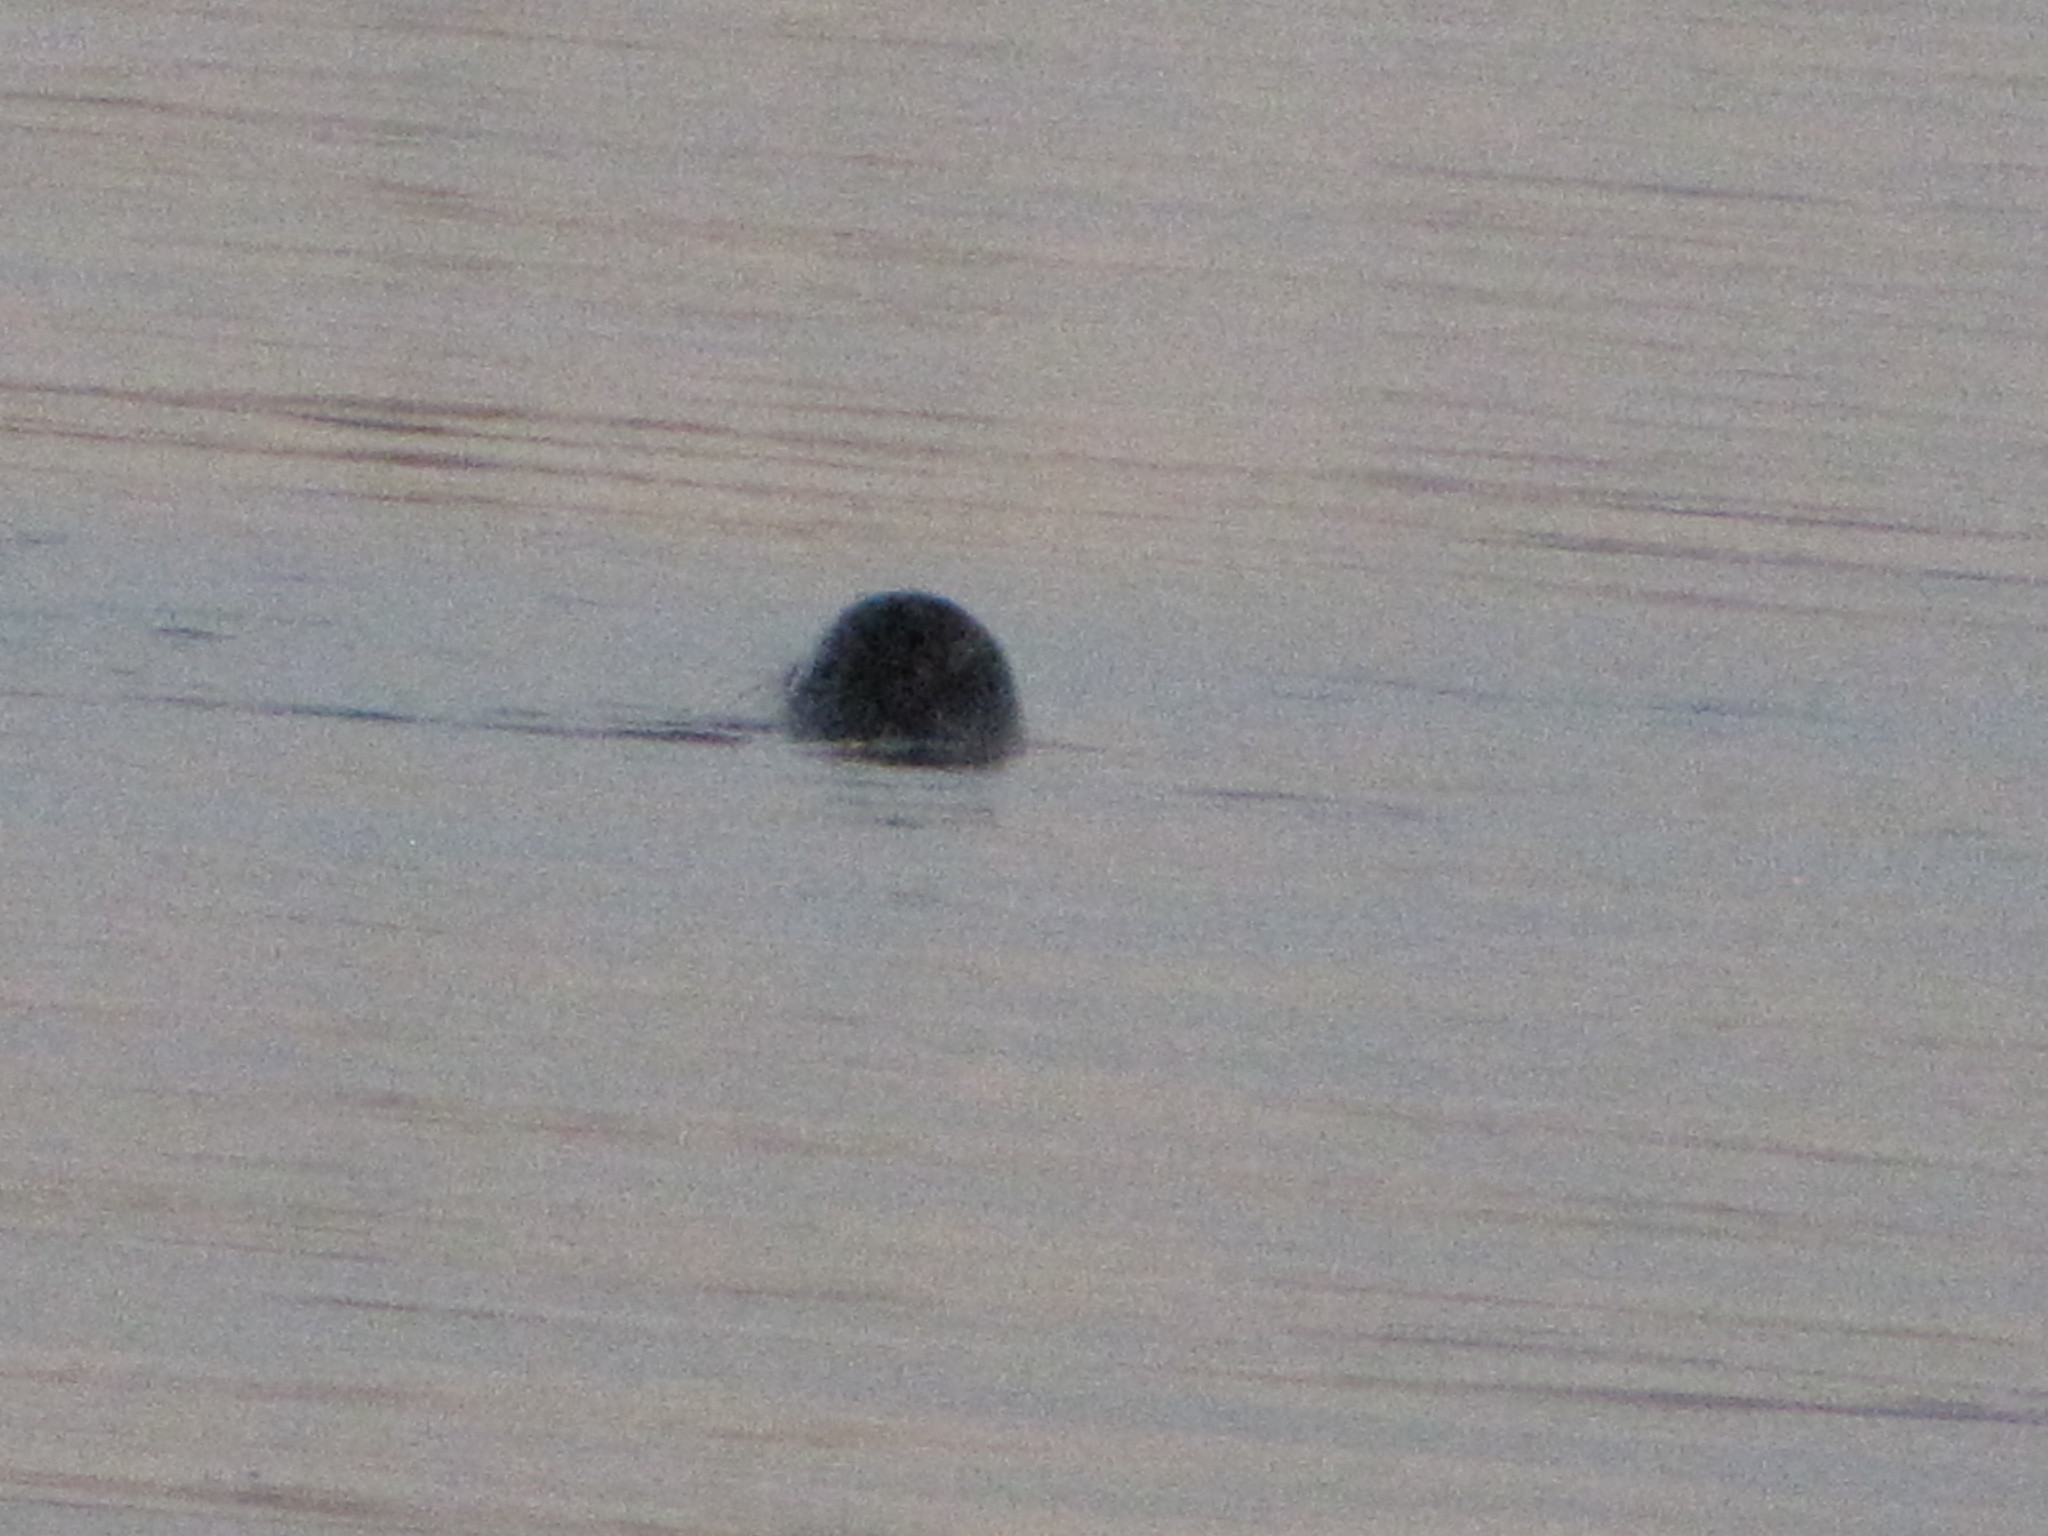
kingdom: Animalia
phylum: Chordata
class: Mammalia
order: Carnivora
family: Phocidae
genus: Phoca
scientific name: Phoca vitulina
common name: Harbor seal
